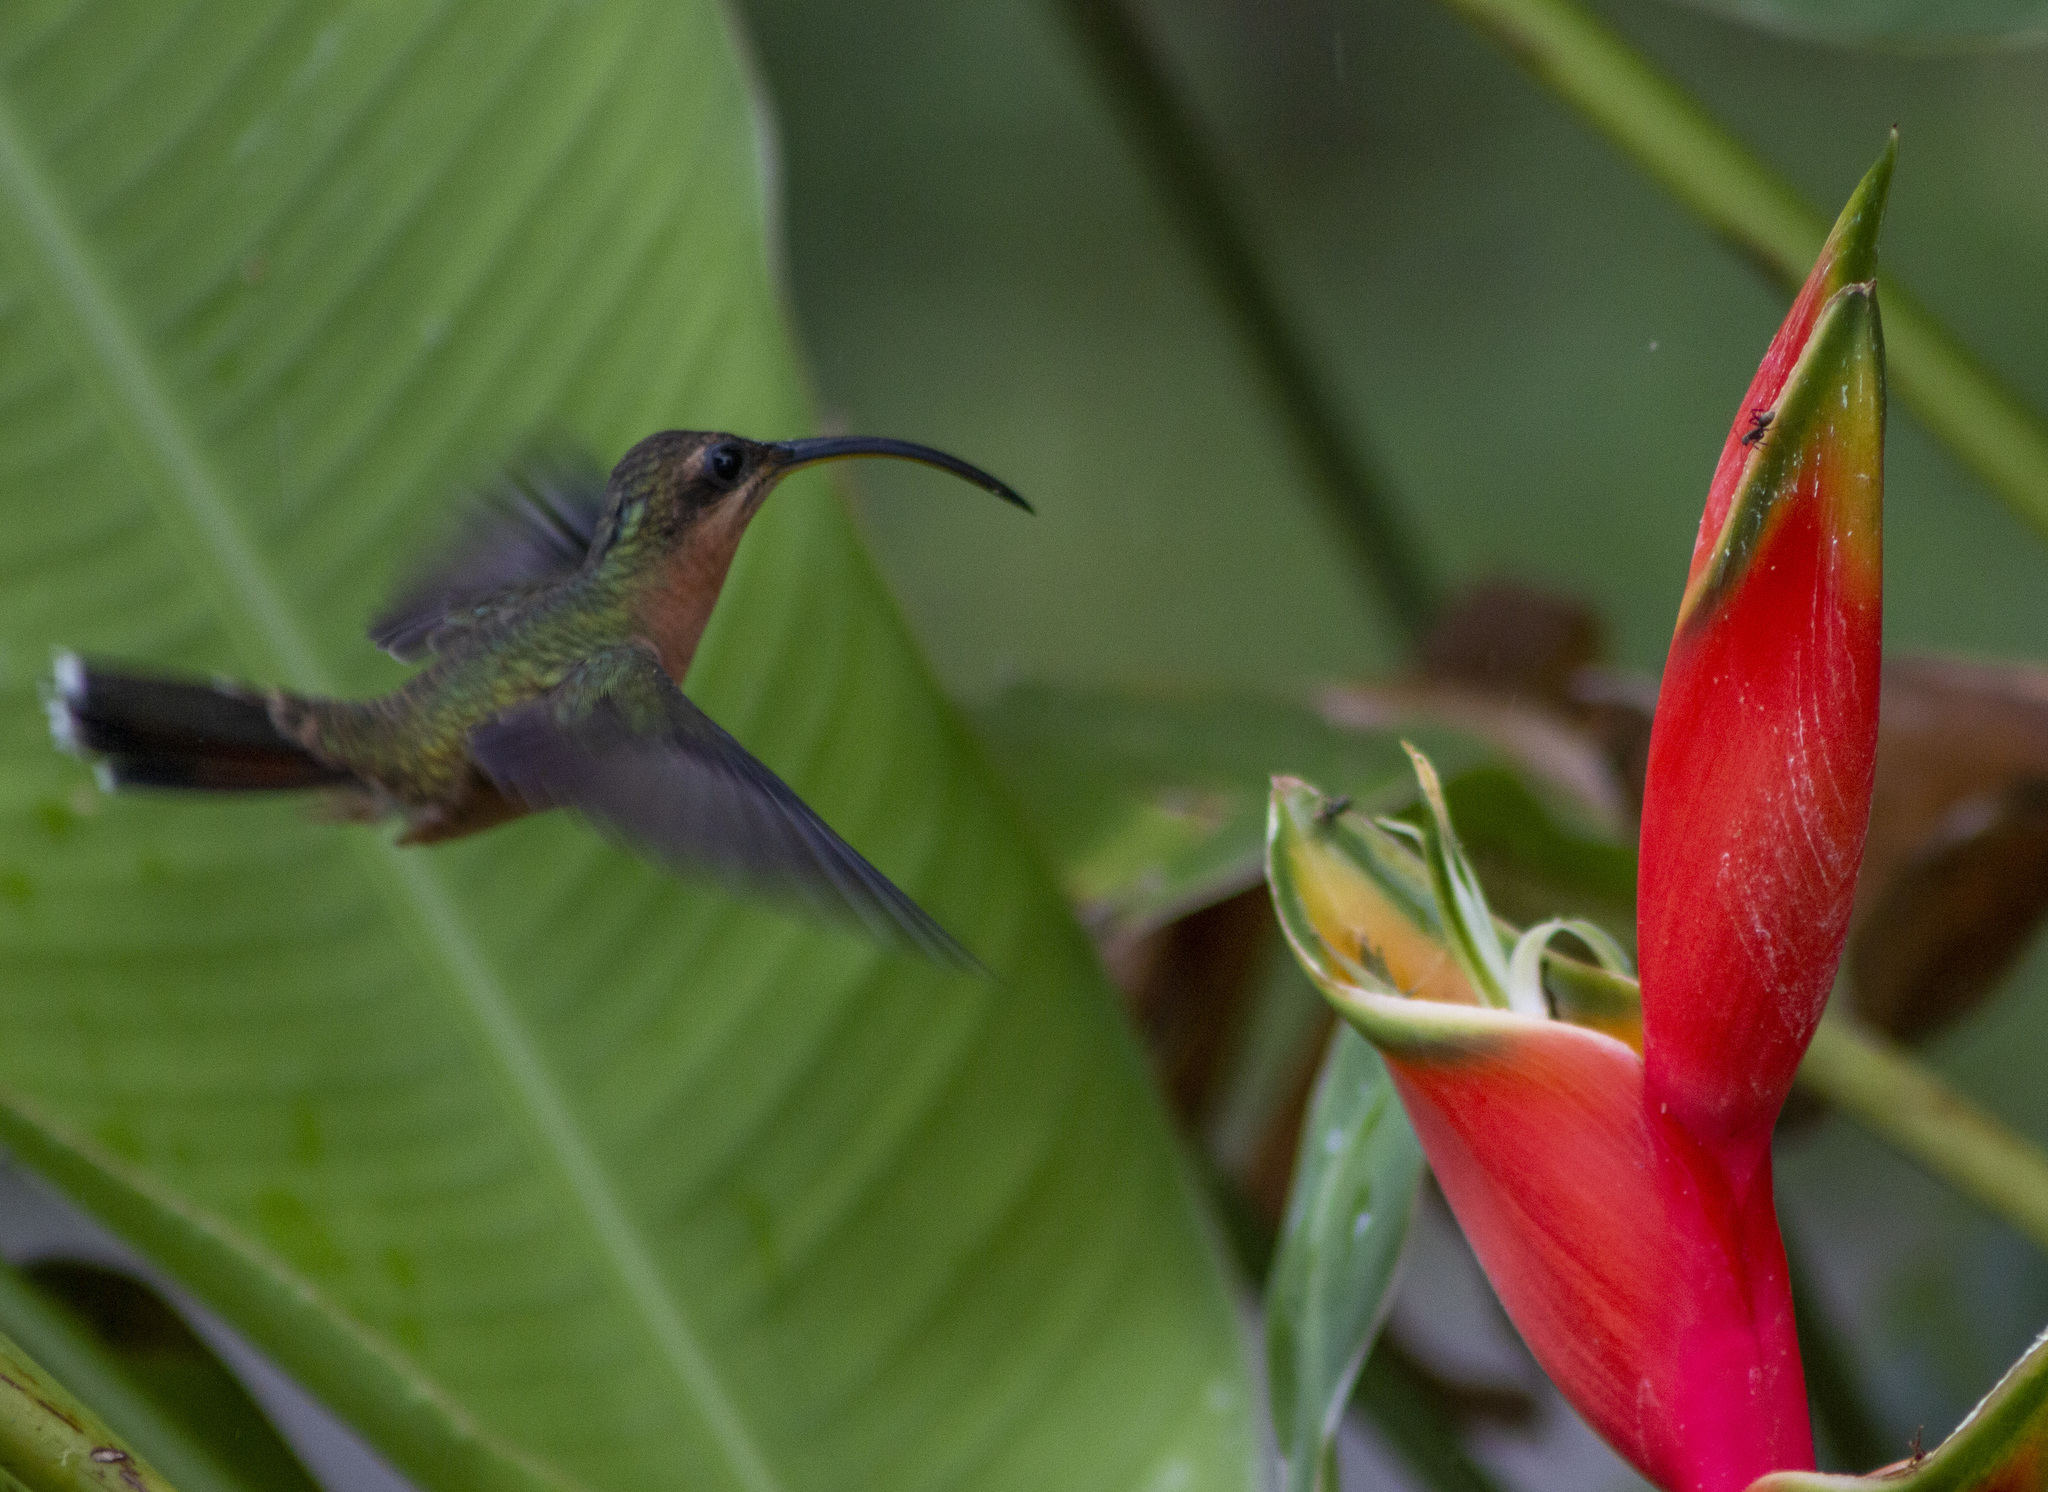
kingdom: Animalia
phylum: Chordata
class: Aves
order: Apodiformes
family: Trochilidae
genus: Glaucis
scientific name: Glaucis hirsutus
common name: Rufous-breasted hermit
